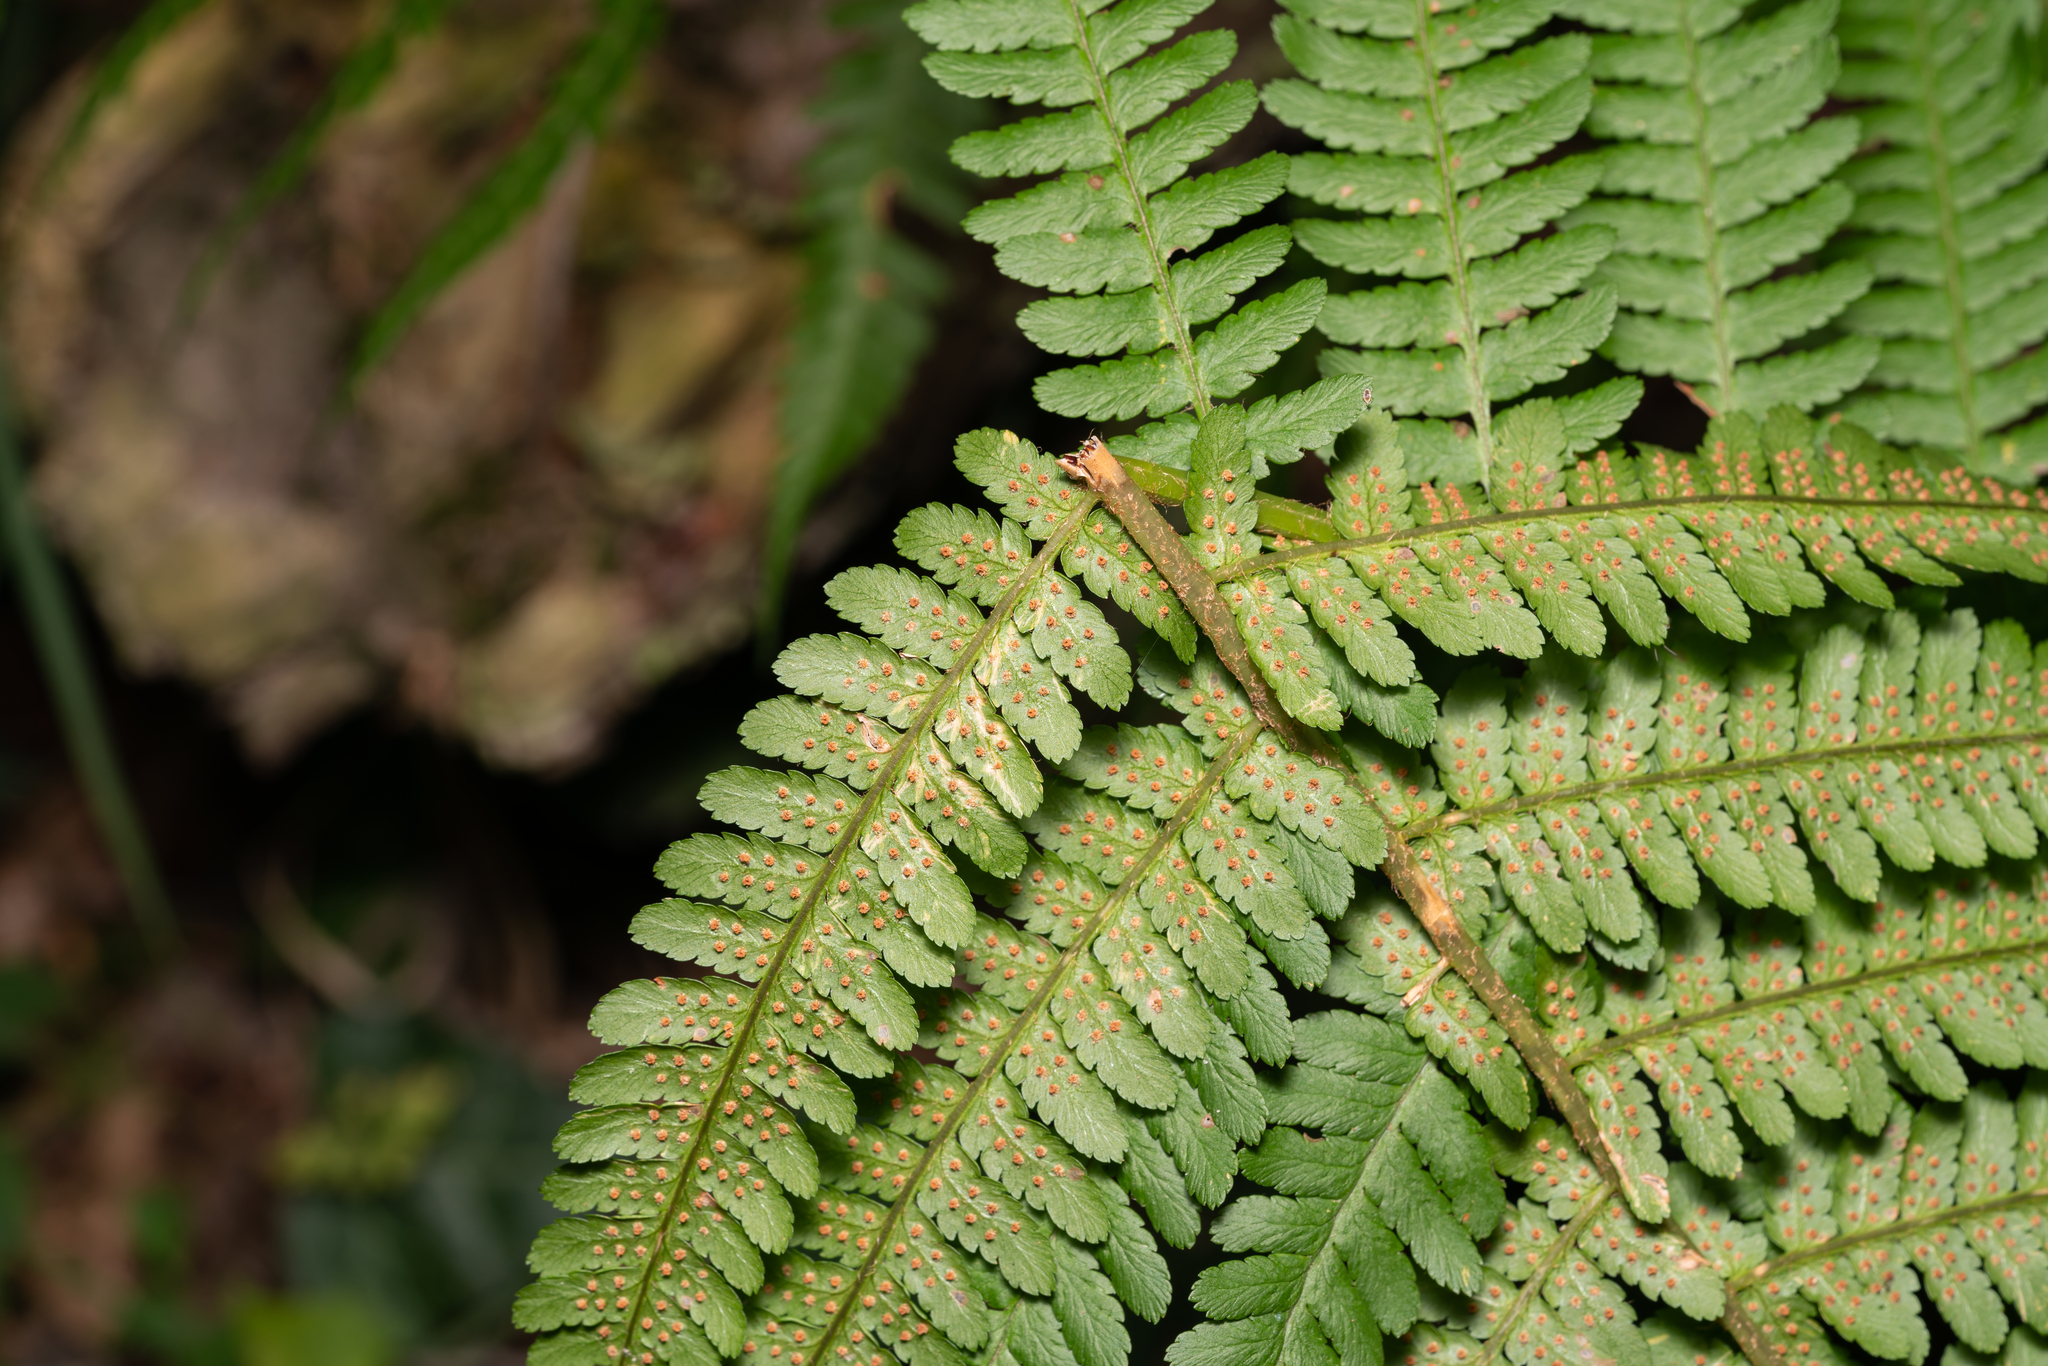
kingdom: Plantae
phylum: Tracheophyta
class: Polypodiopsida
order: Polypodiales
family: Dryopteridaceae
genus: Dryopteris
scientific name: Dryopteris filix-mas
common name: Male fern
